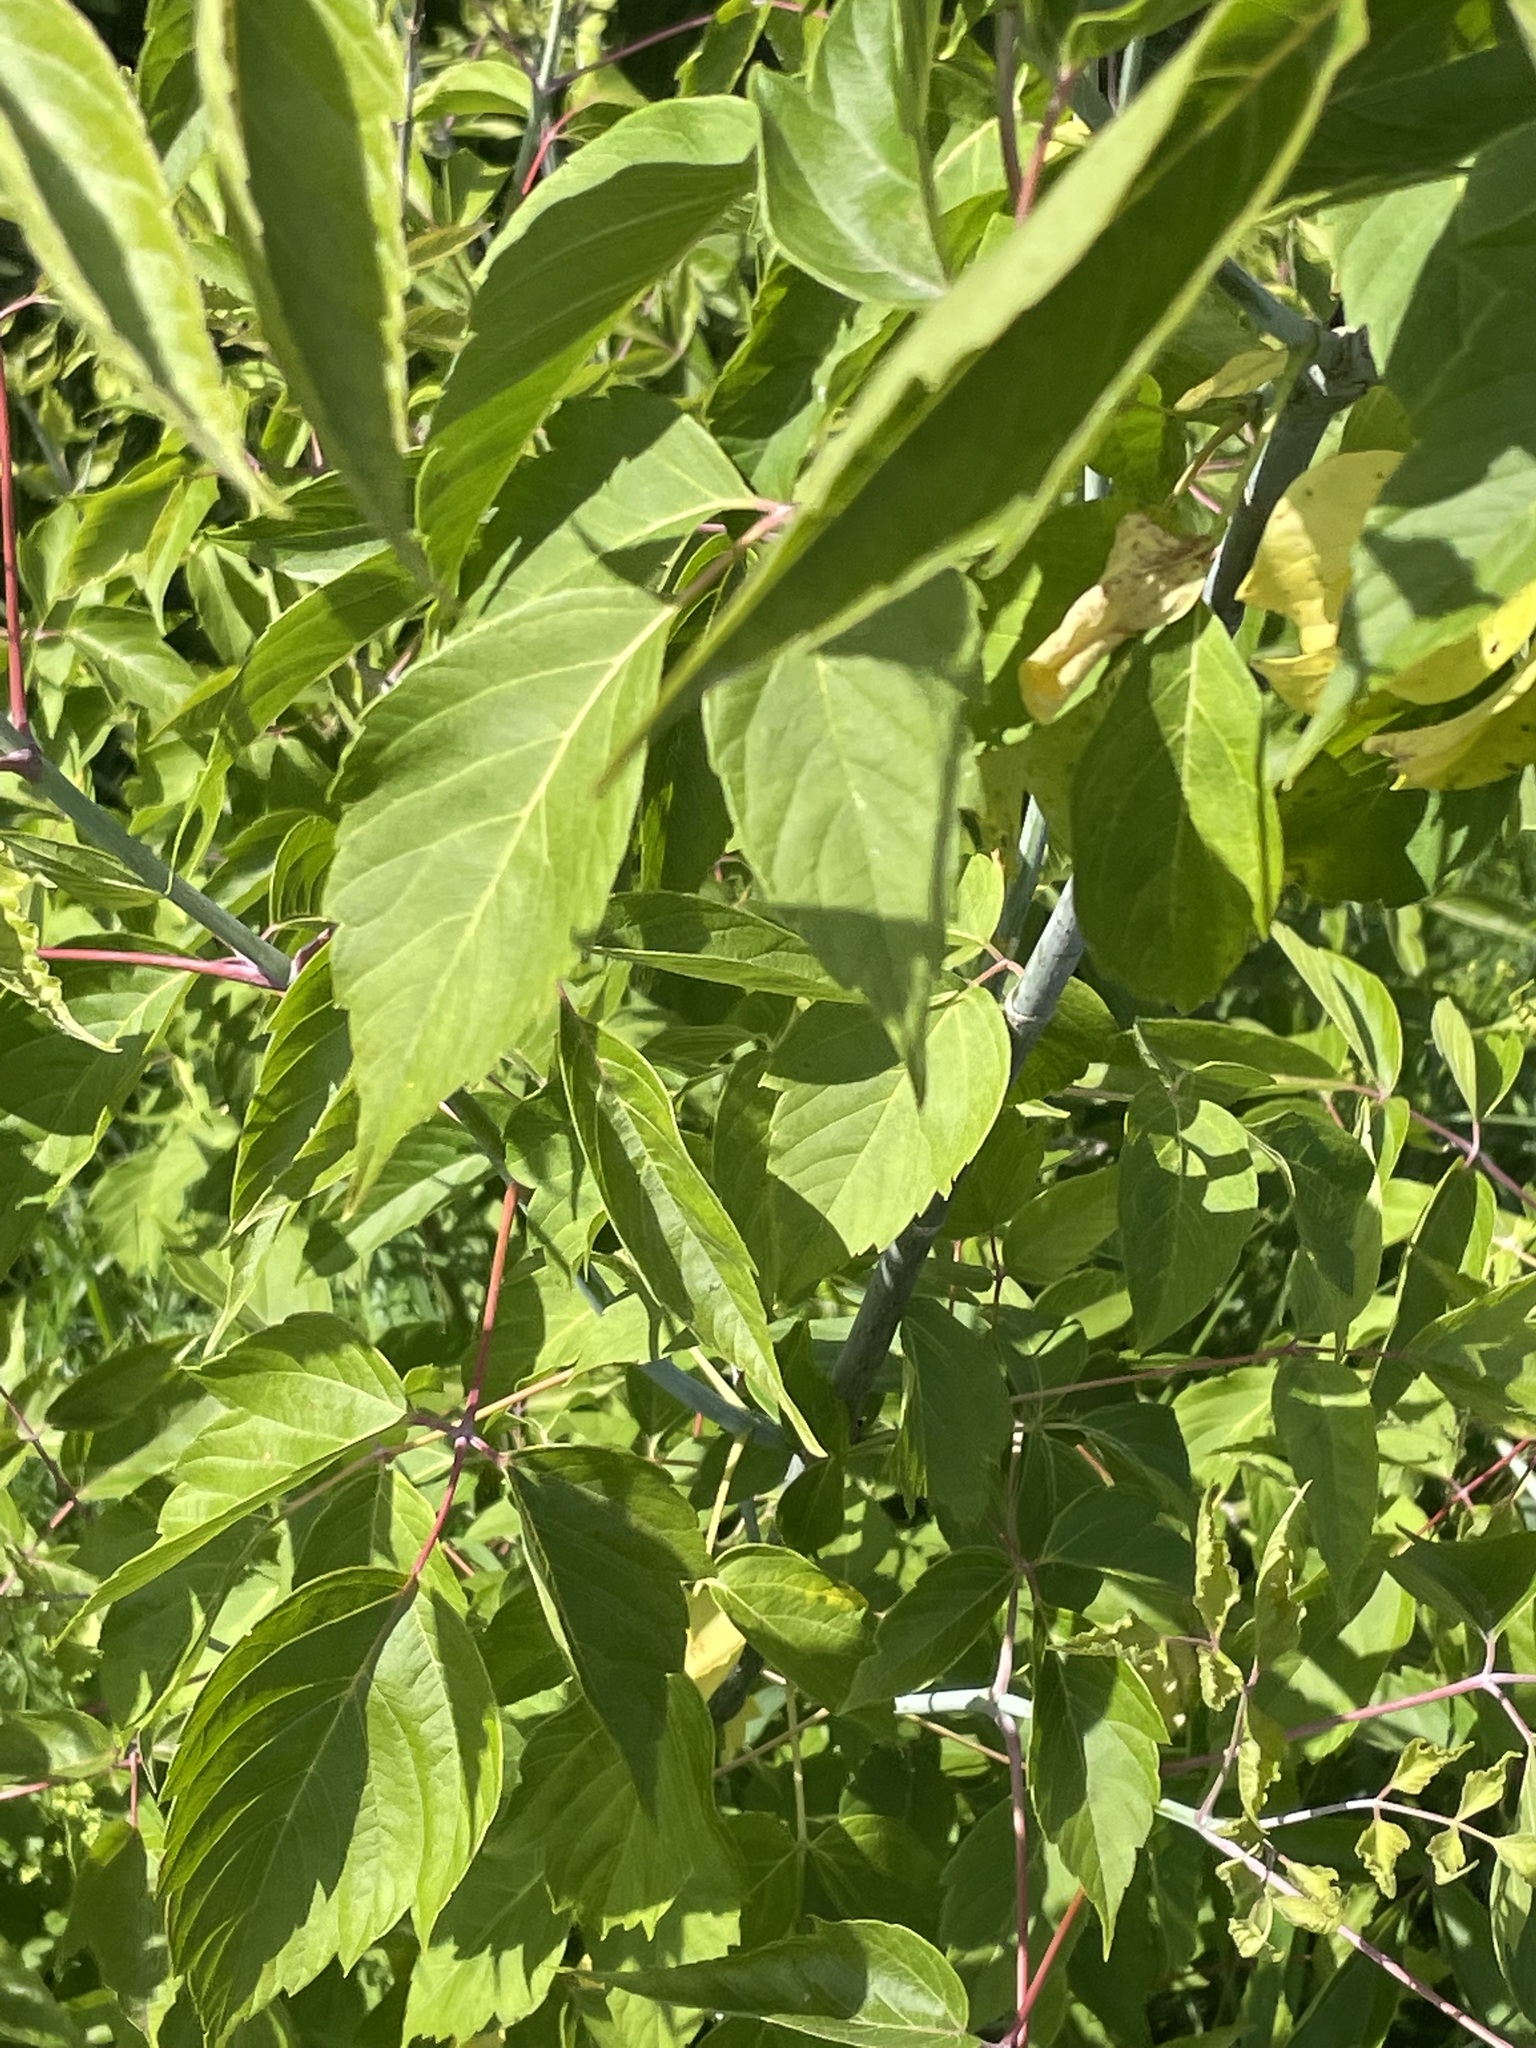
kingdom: Plantae
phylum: Tracheophyta
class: Magnoliopsida
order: Sapindales
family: Sapindaceae
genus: Acer
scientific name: Acer negundo
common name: Ashleaf maple
